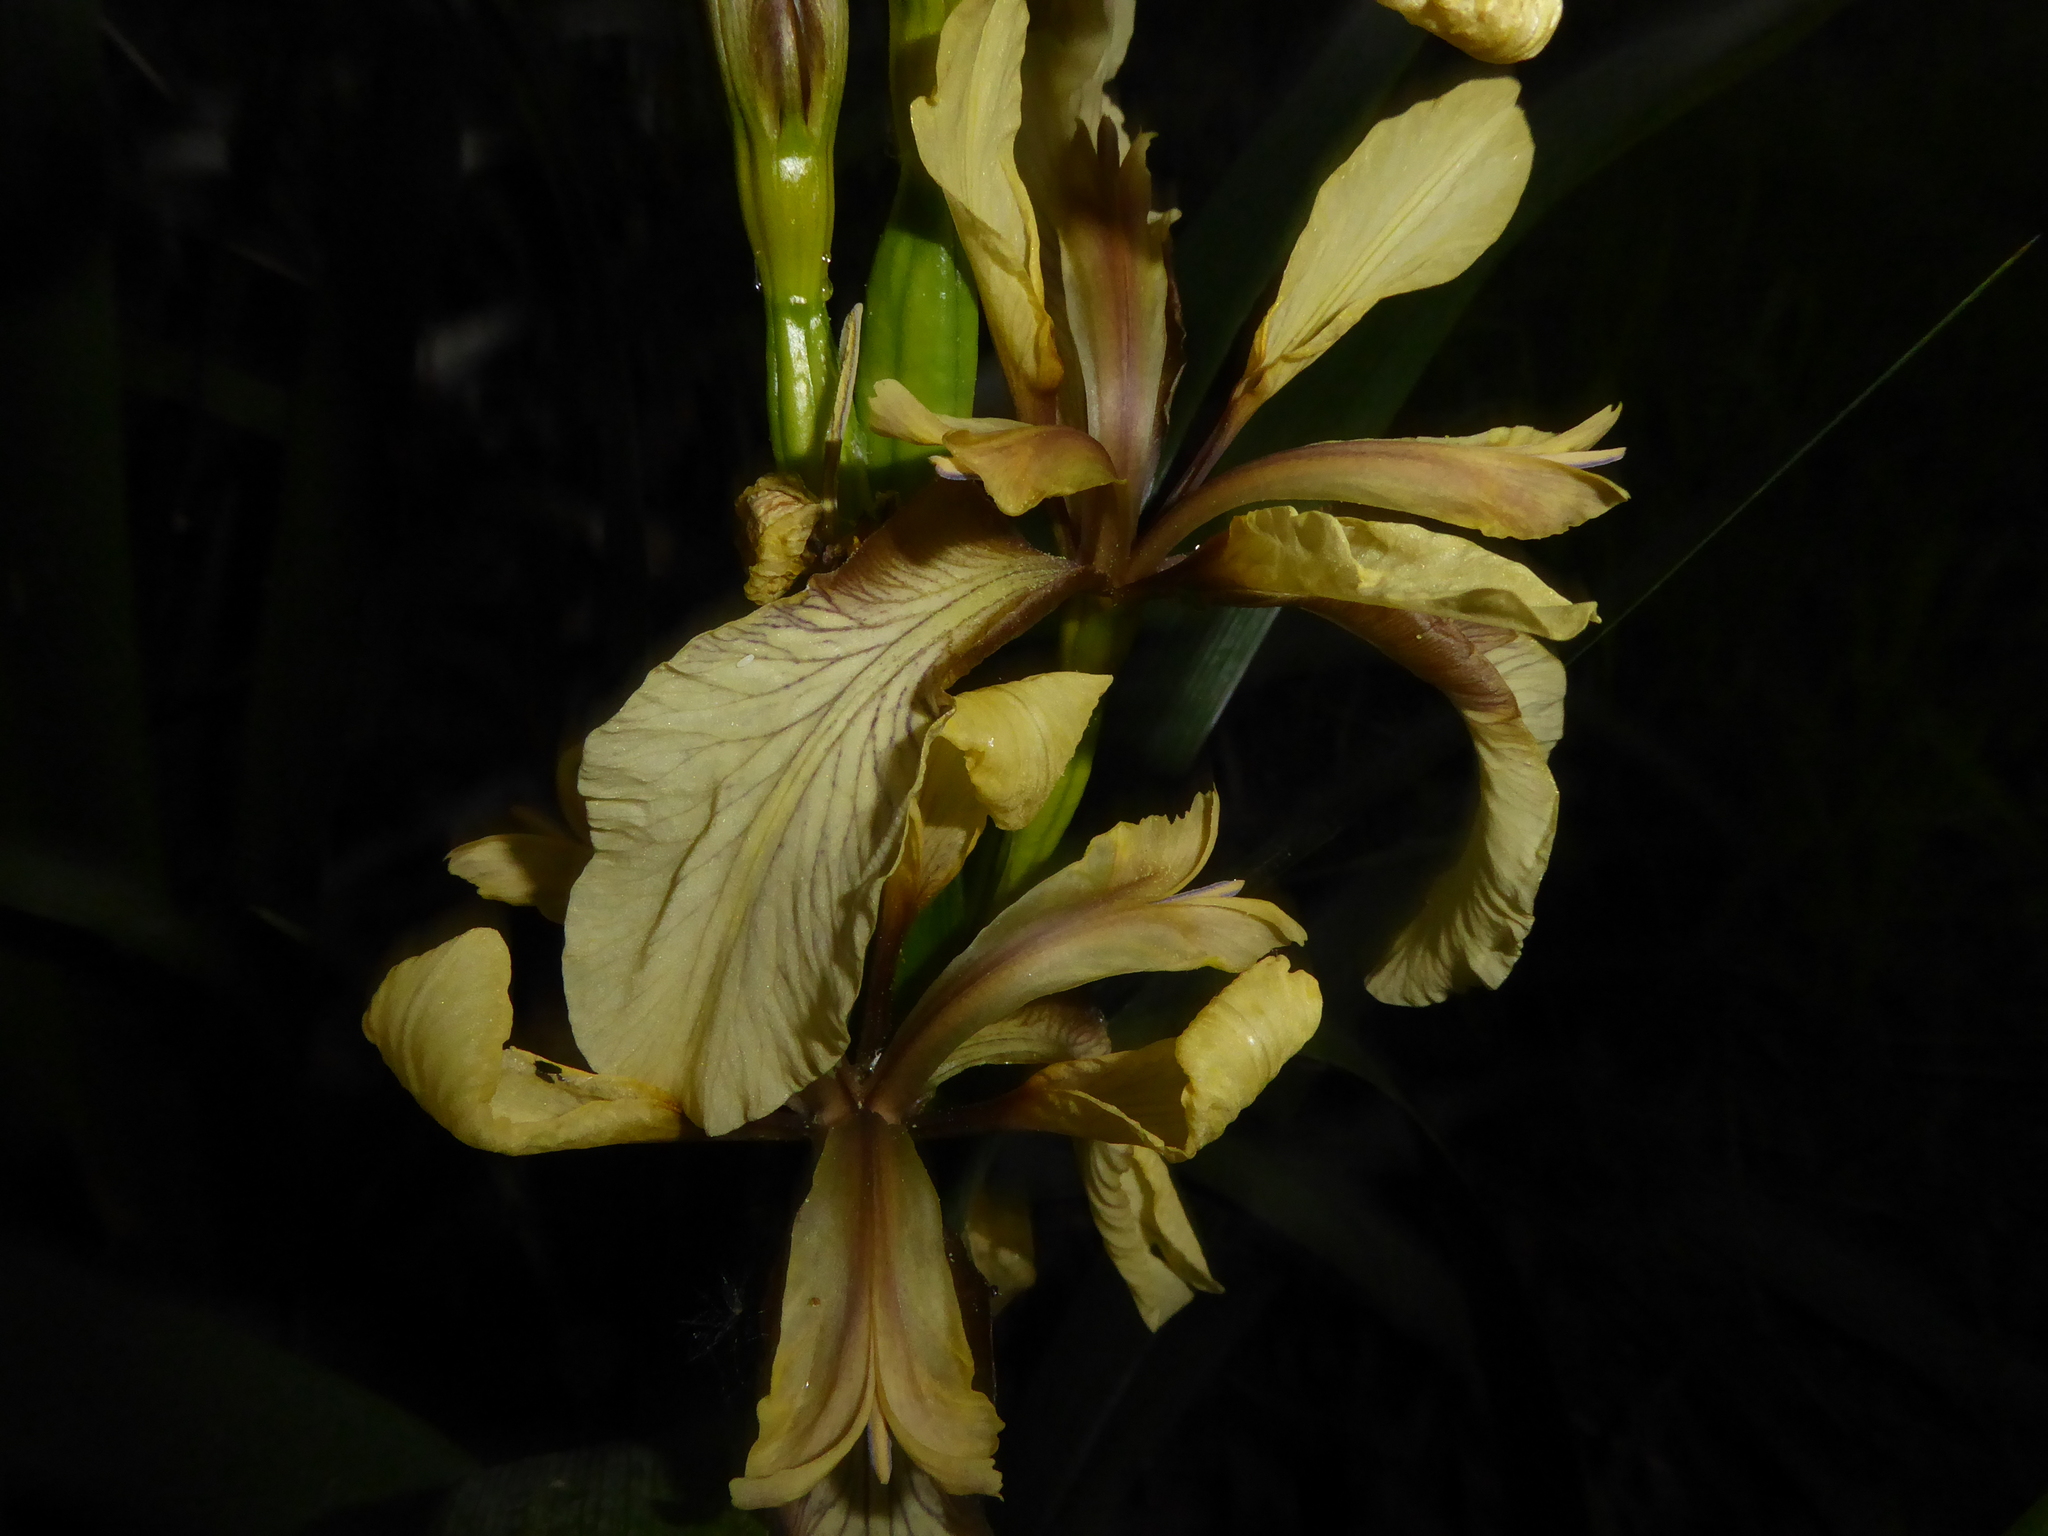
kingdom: Plantae
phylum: Tracheophyta
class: Liliopsida
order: Asparagales
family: Iridaceae
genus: Iris
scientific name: Iris foetidissima
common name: Stinking iris
